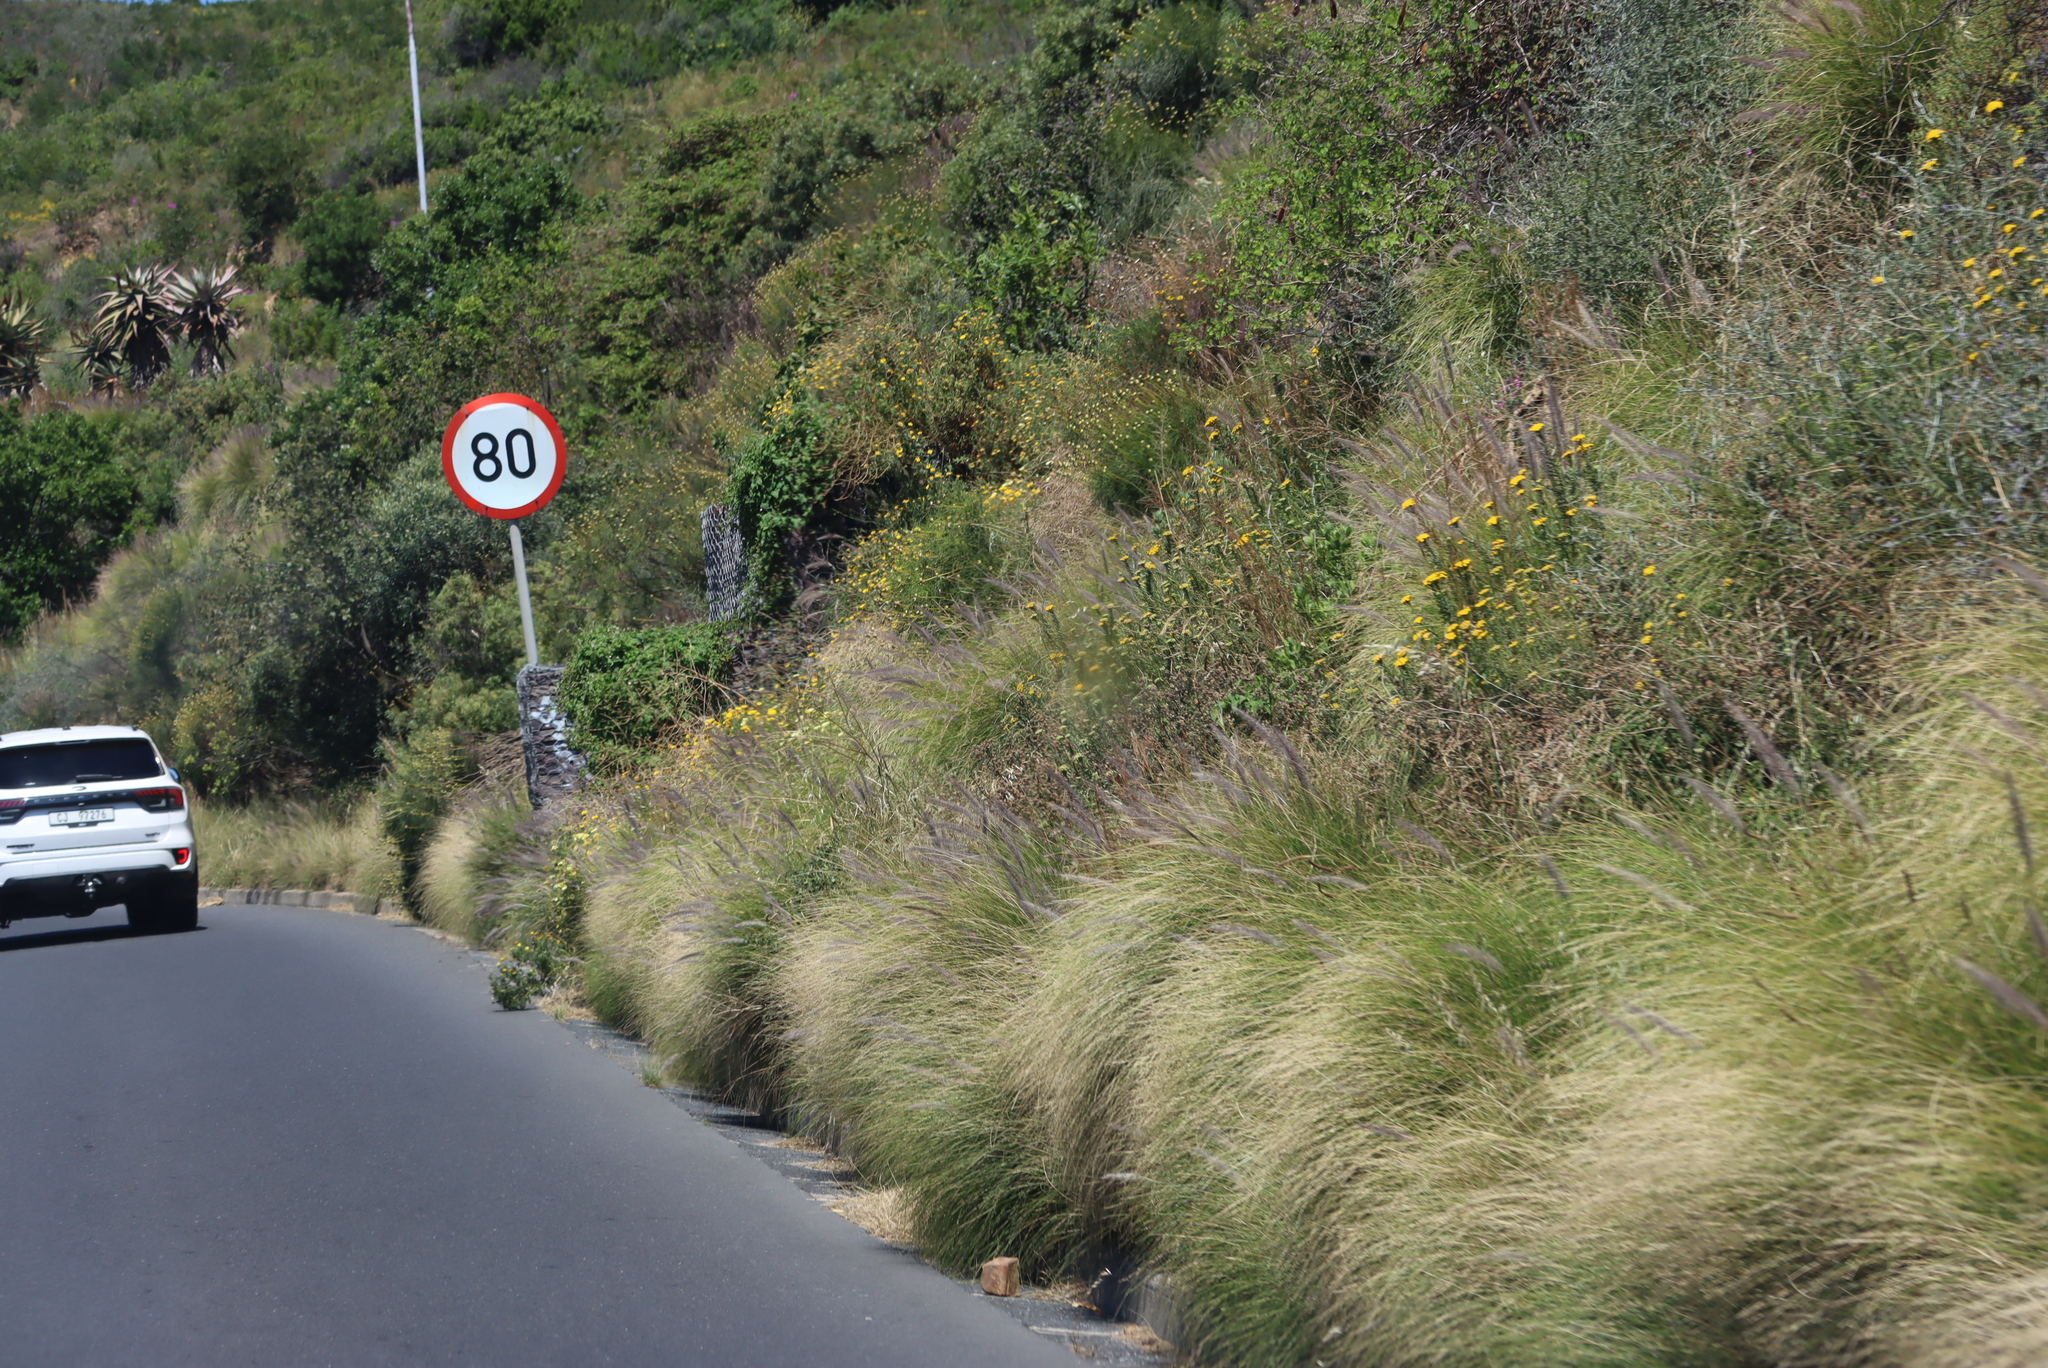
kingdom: Plantae
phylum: Tracheophyta
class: Liliopsida
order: Poales
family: Poaceae
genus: Cenchrus
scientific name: Cenchrus setaceus
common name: Crimson fountaingrass
